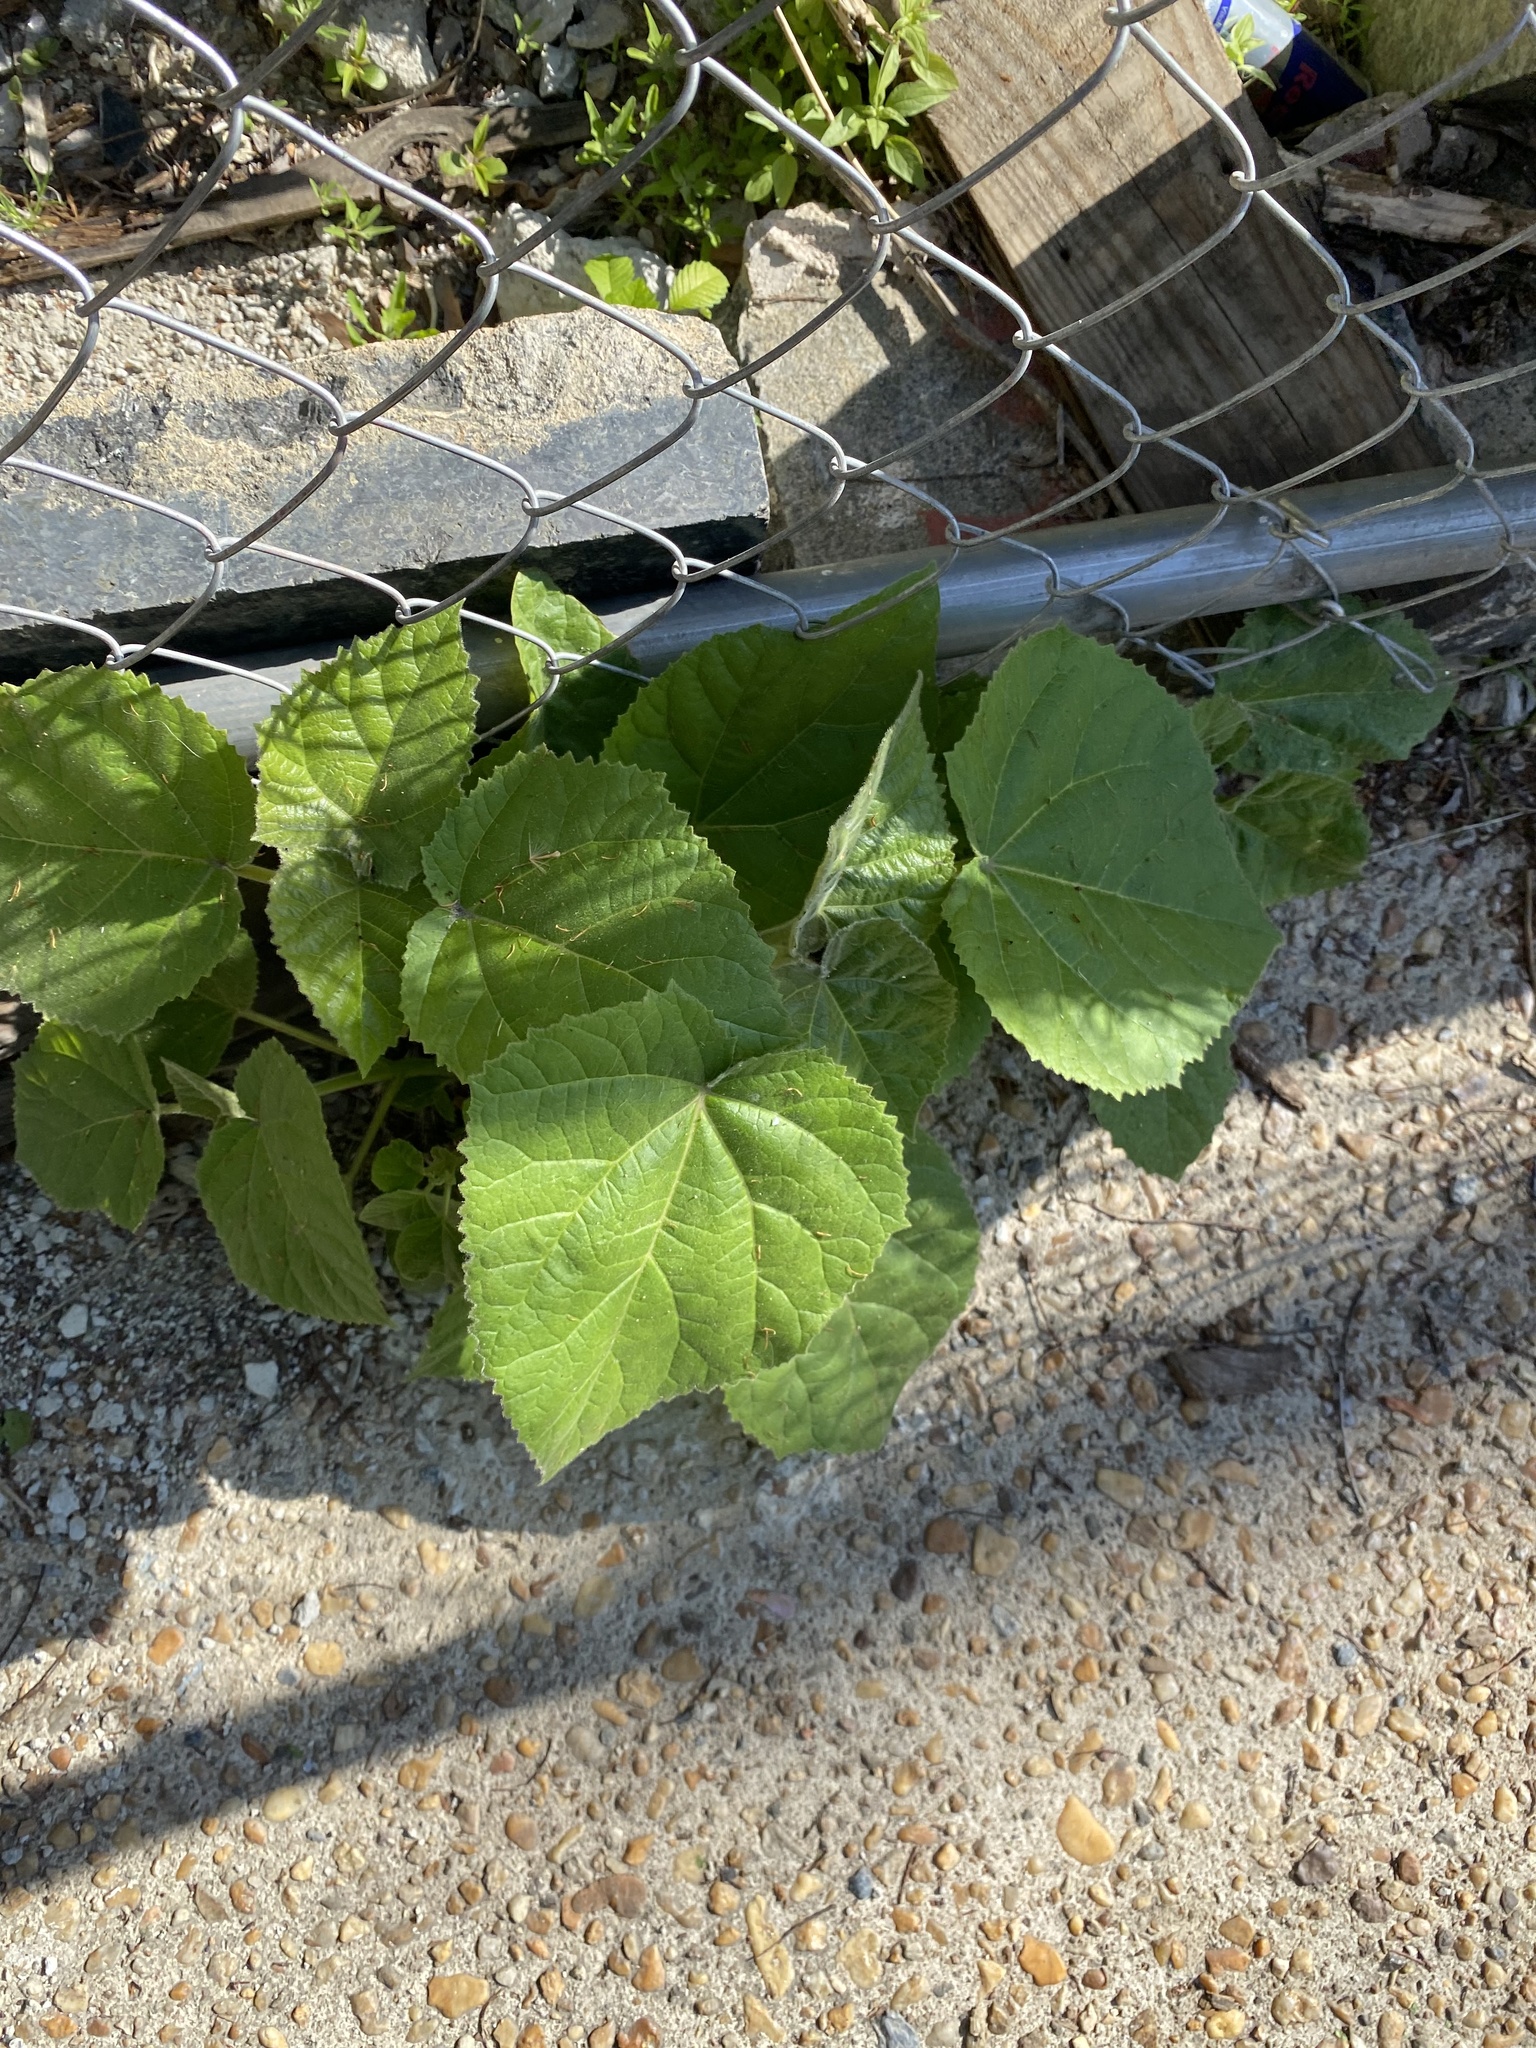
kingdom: Plantae
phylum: Tracheophyta
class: Magnoliopsida
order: Lamiales
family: Paulowniaceae
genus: Paulownia
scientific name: Paulownia tomentosa
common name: Foxglove-tree
